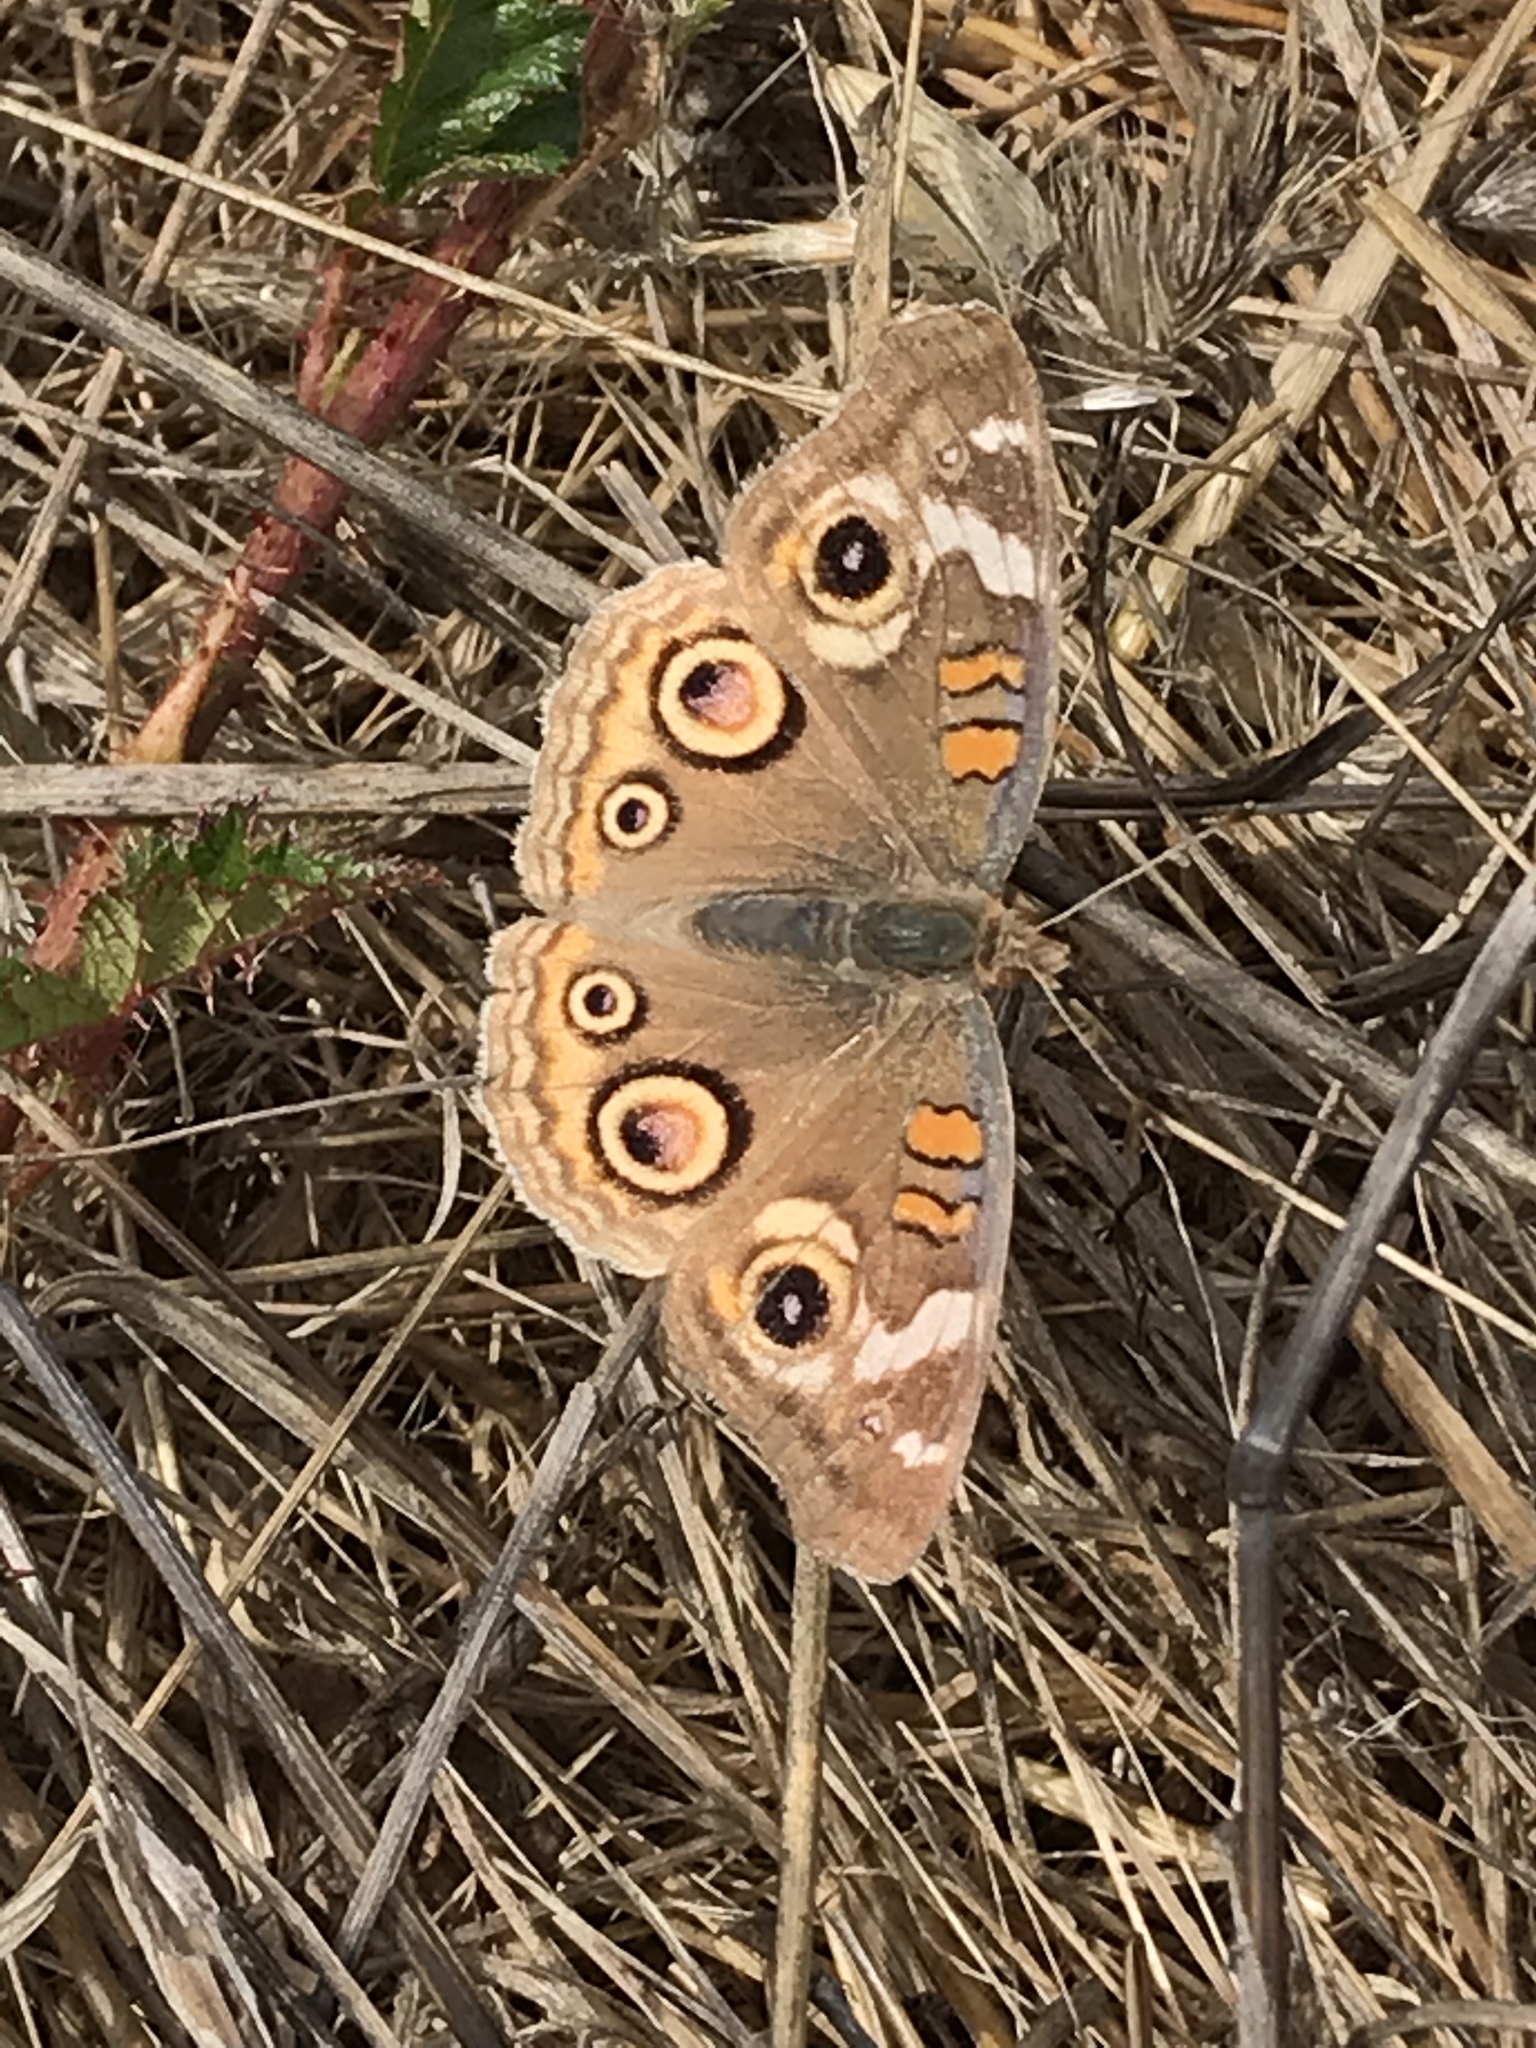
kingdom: Animalia
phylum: Arthropoda
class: Insecta
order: Lepidoptera
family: Nymphalidae
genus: Junonia
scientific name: Junonia grisea
